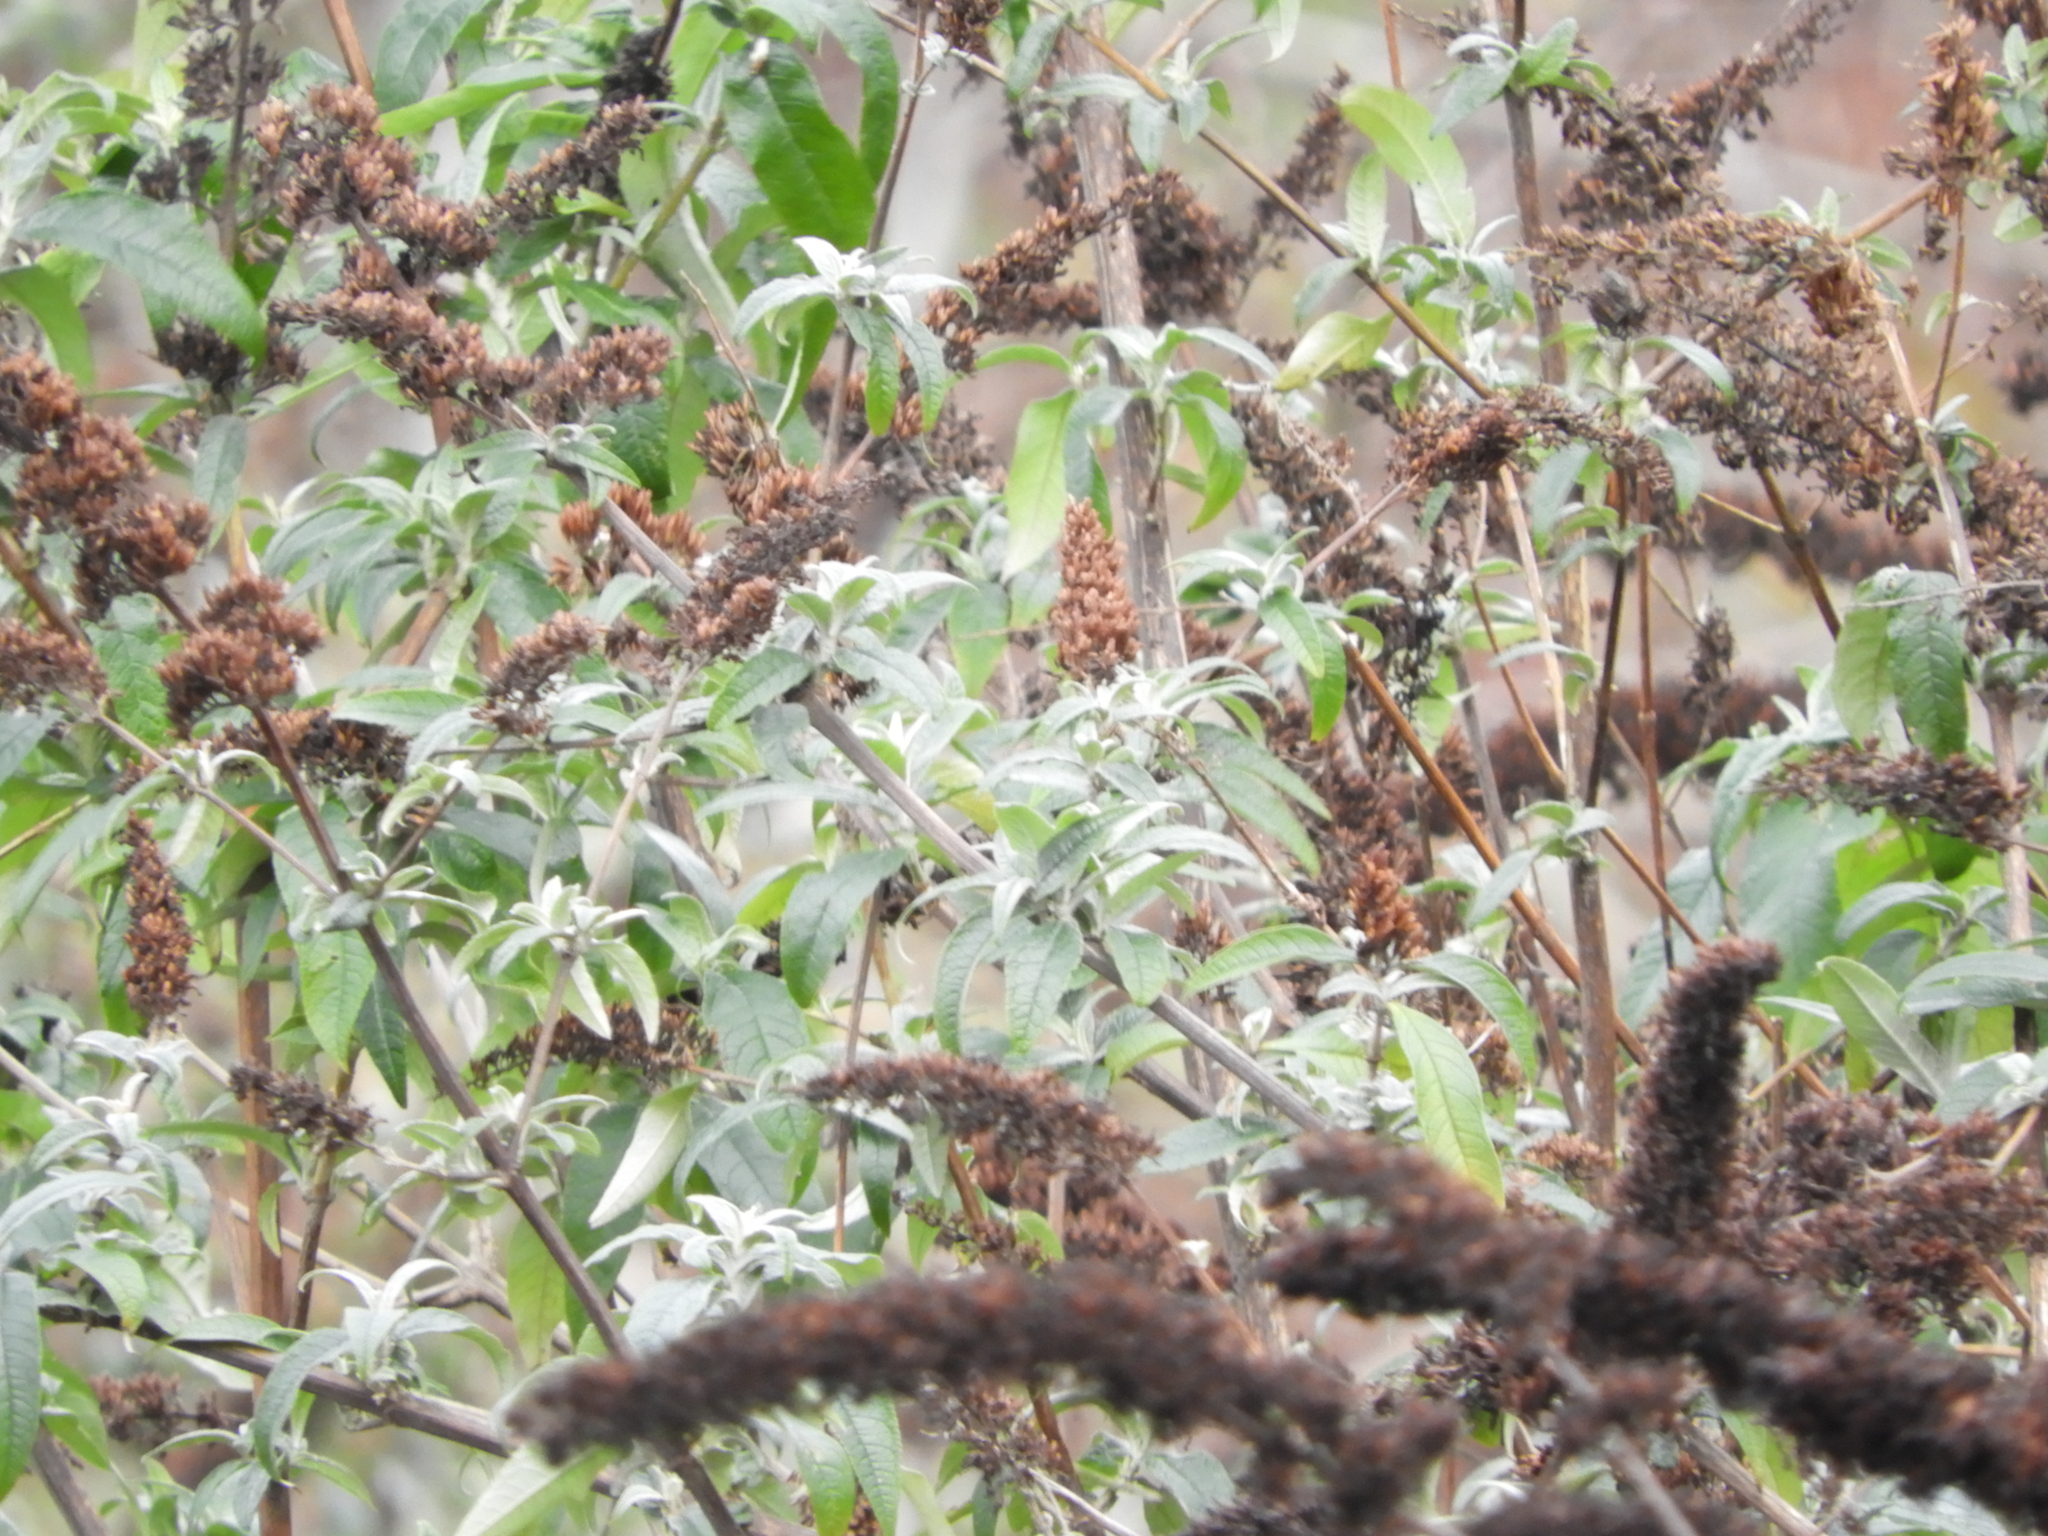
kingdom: Plantae
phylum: Tracheophyta
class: Magnoliopsida
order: Lamiales
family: Scrophulariaceae
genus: Buddleja
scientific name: Buddleja davidii
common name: Butterfly-bush
